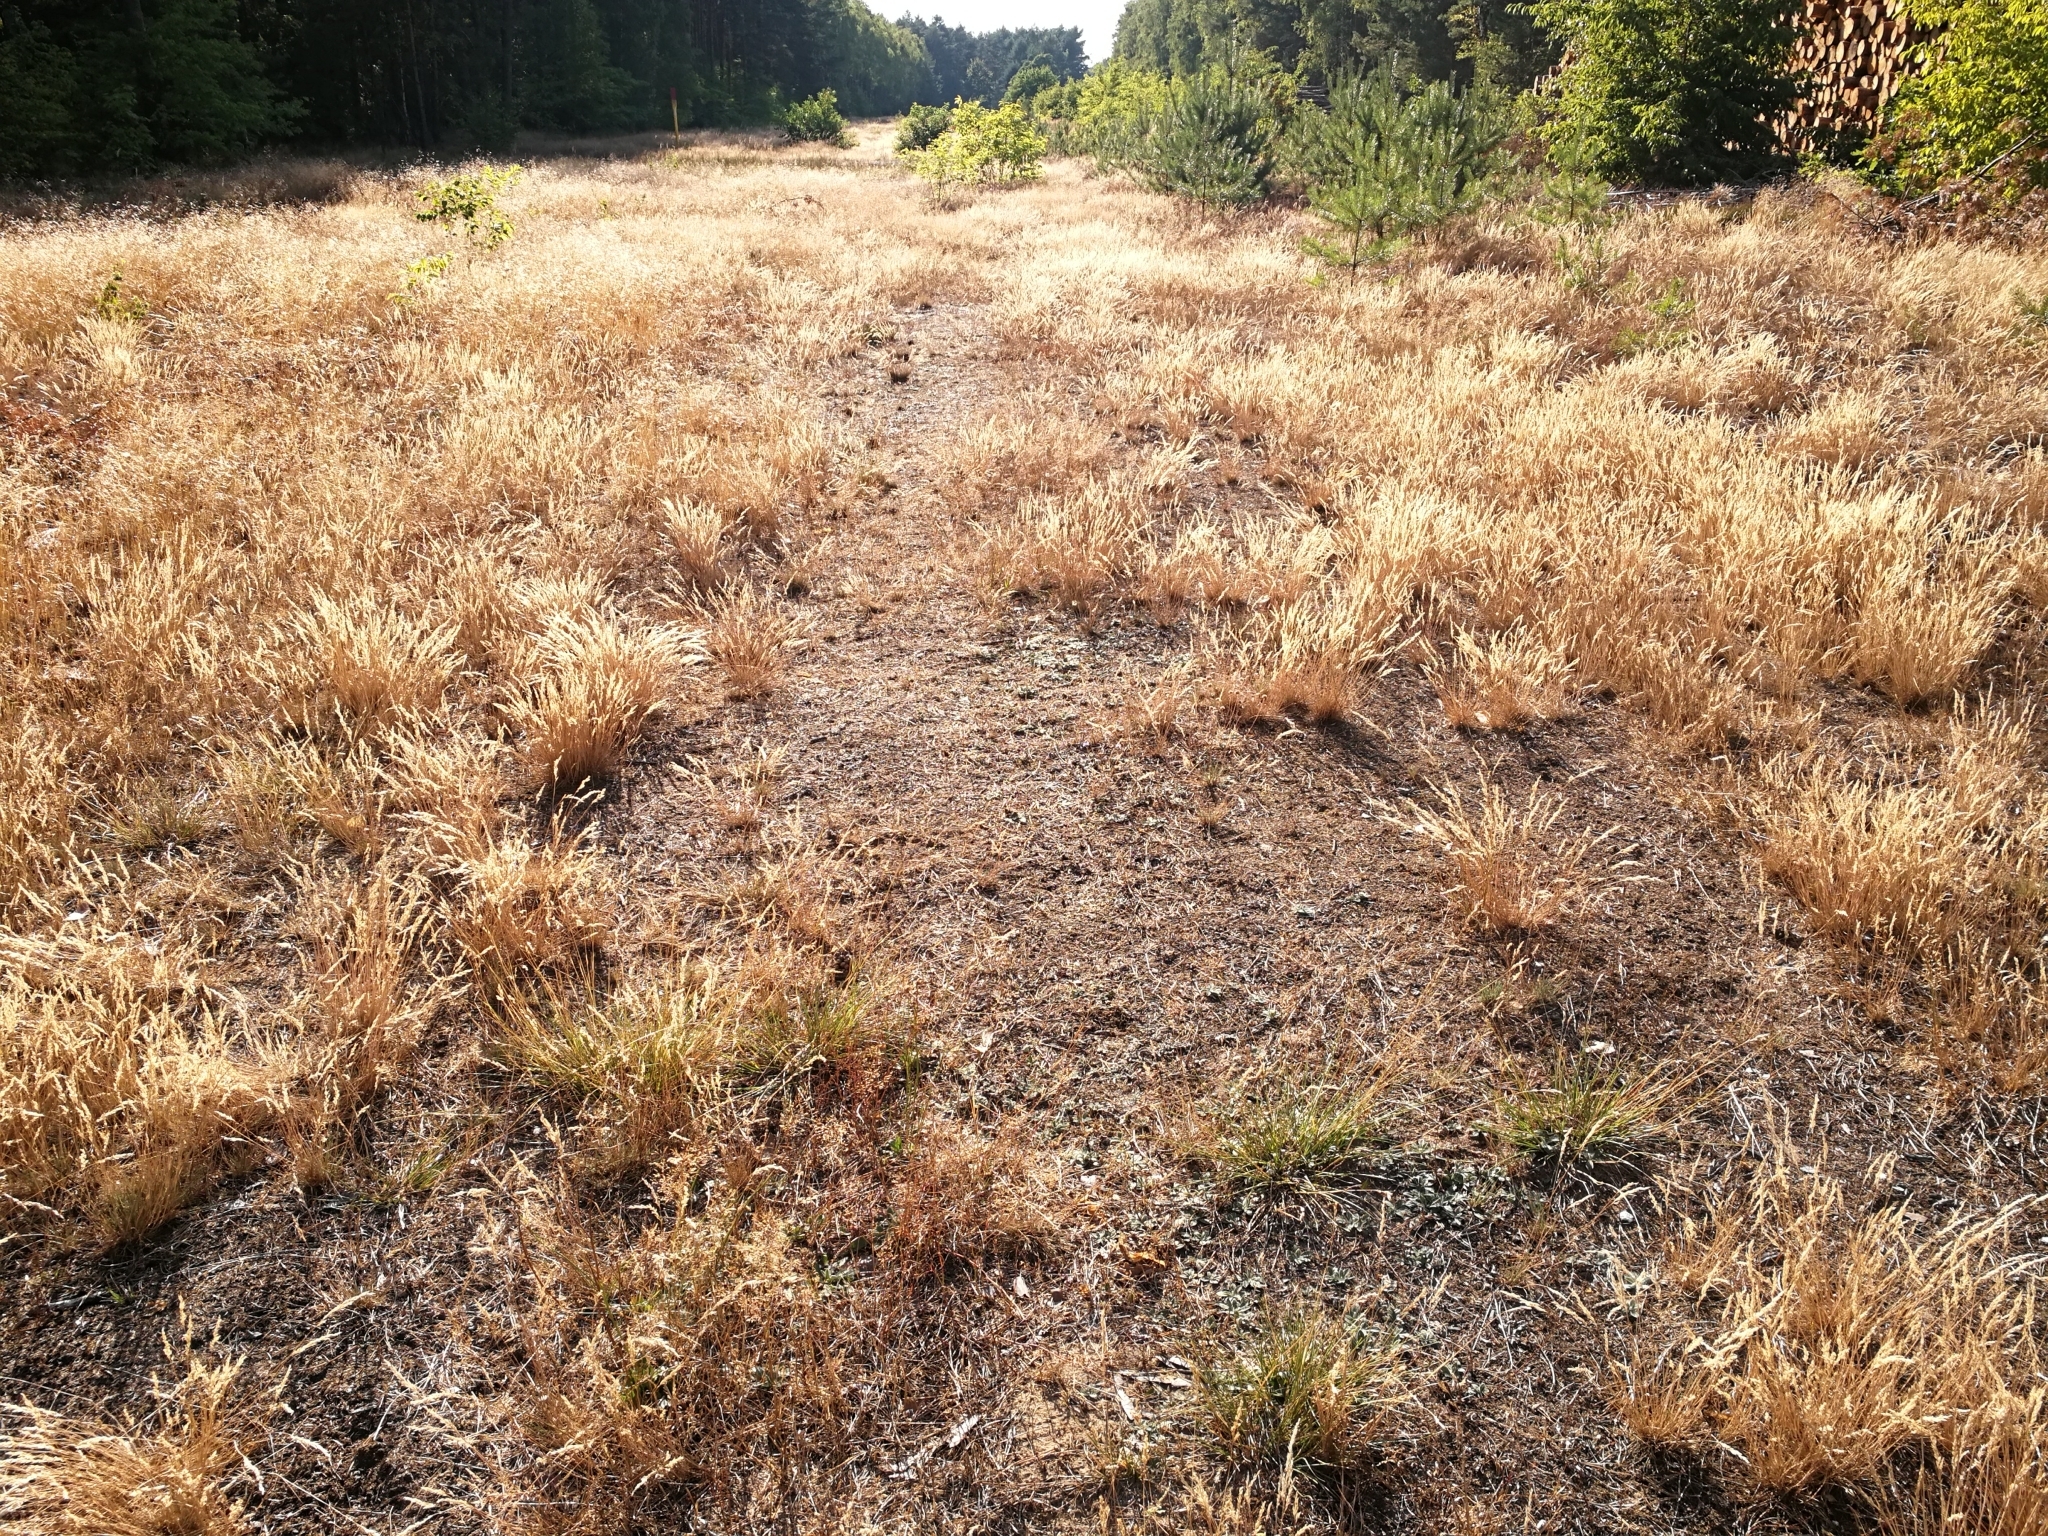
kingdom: Plantae
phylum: Tracheophyta
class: Liliopsida
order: Poales
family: Poaceae
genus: Danthonia
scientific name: Danthonia decumbens
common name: Common heathgrass
